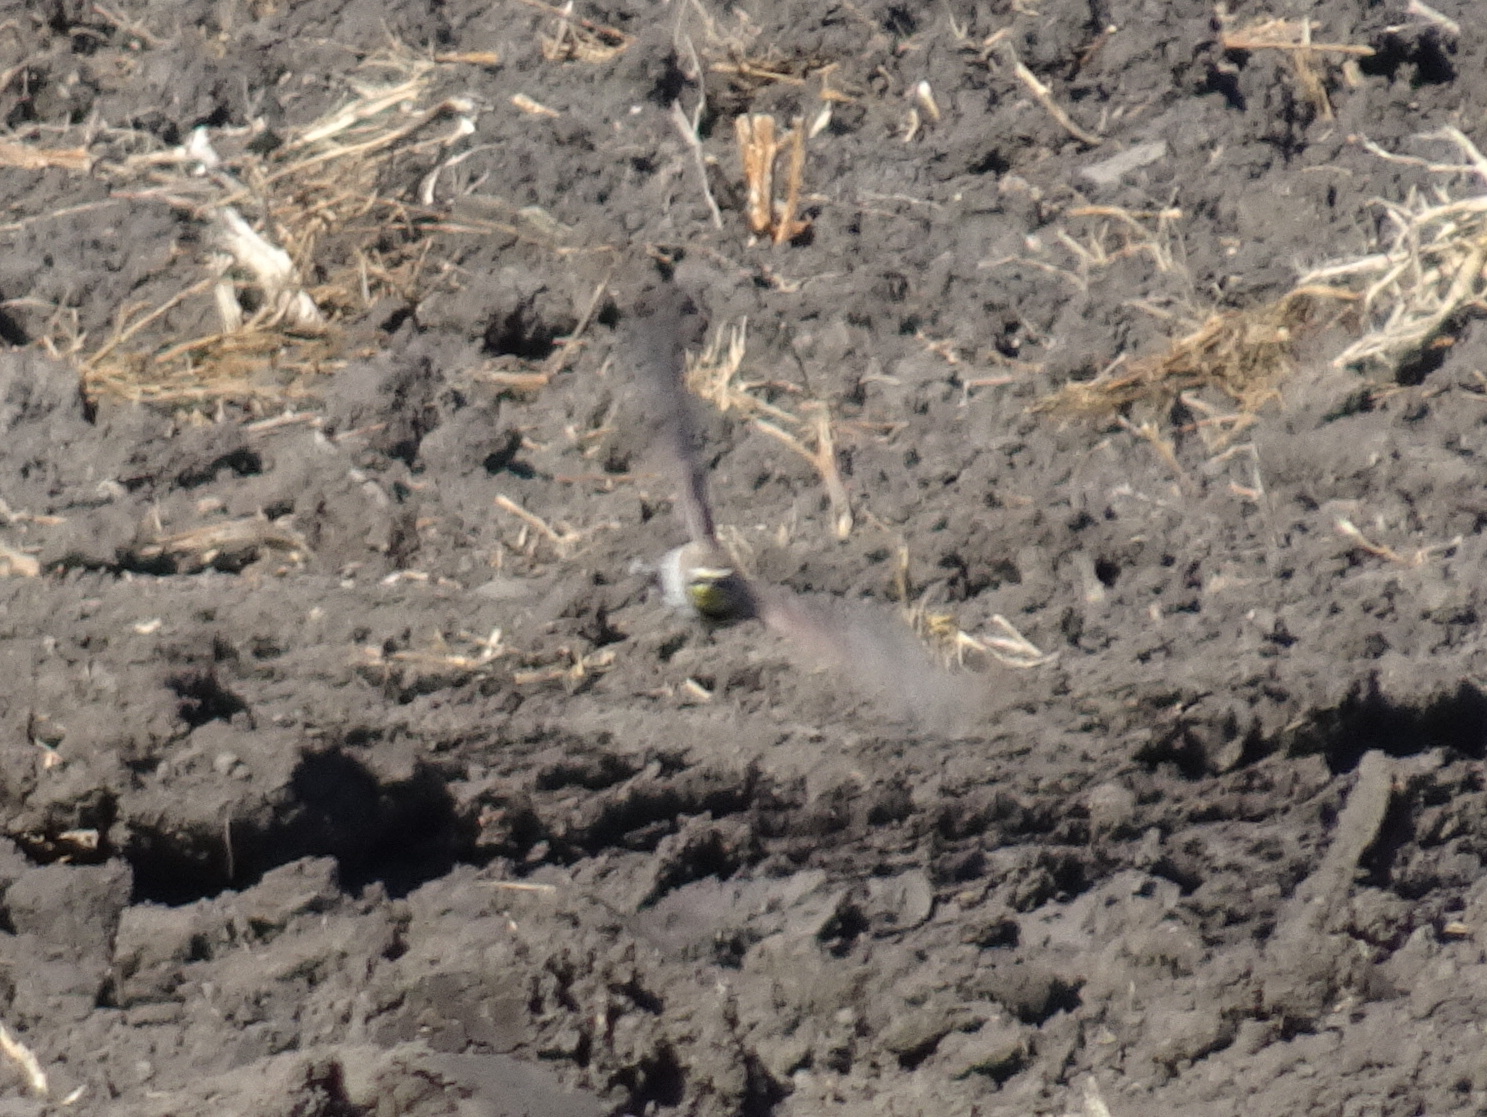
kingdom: Animalia
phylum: Chordata
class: Aves
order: Passeriformes
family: Alaudidae
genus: Eremophila
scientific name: Eremophila alpestris
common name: Horned lark
